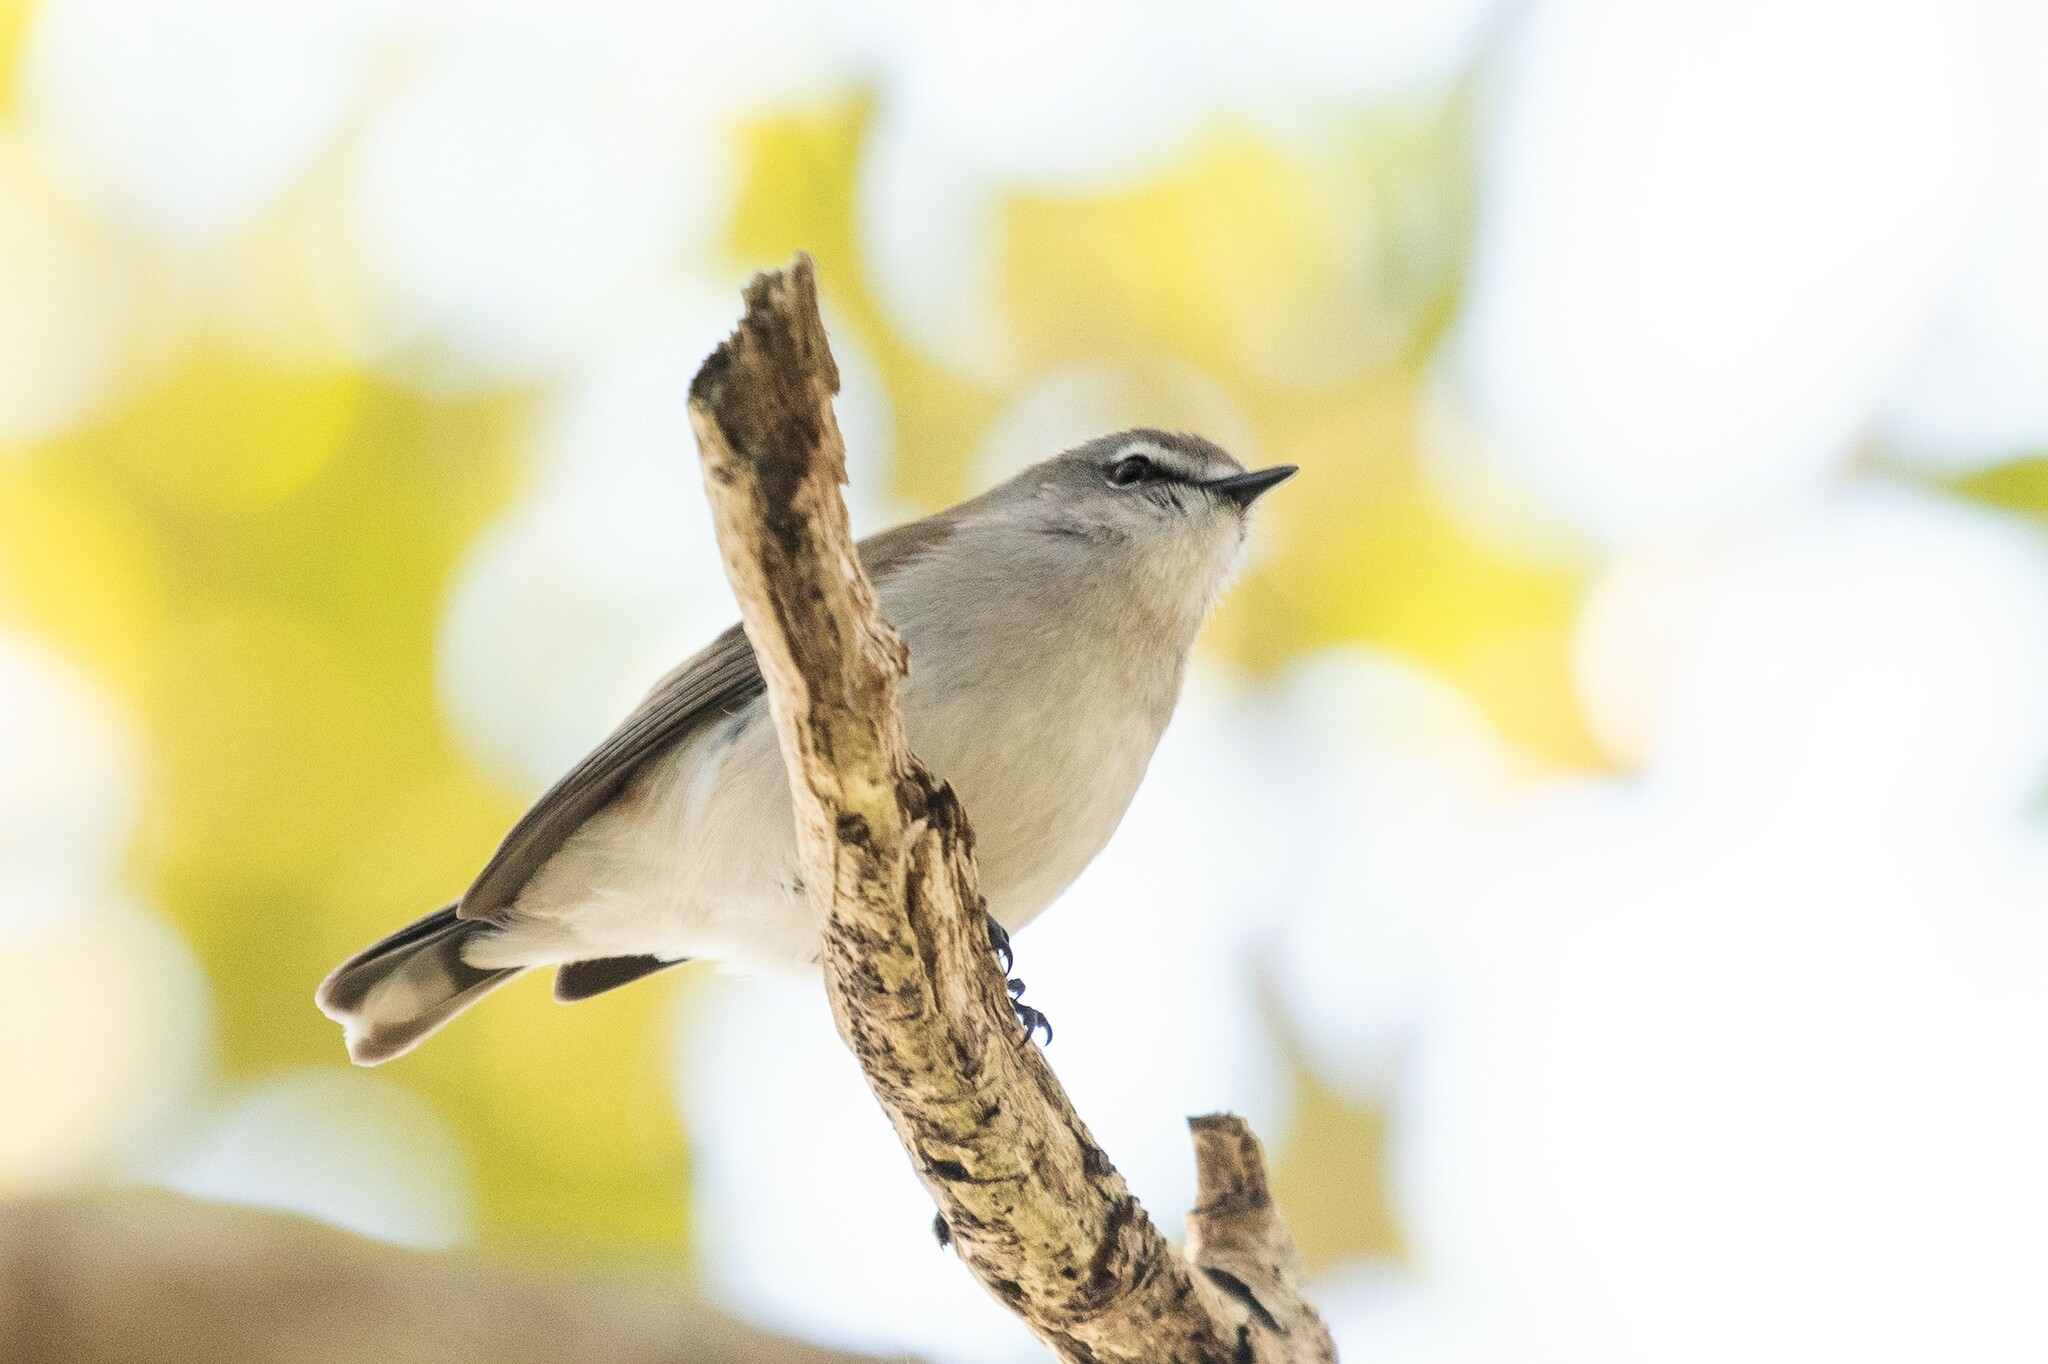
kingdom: Animalia
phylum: Chordata
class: Aves
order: Passeriformes
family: Acanthizidae
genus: Gerygone
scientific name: Gerygone levigaster
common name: Mangrove gerygone
